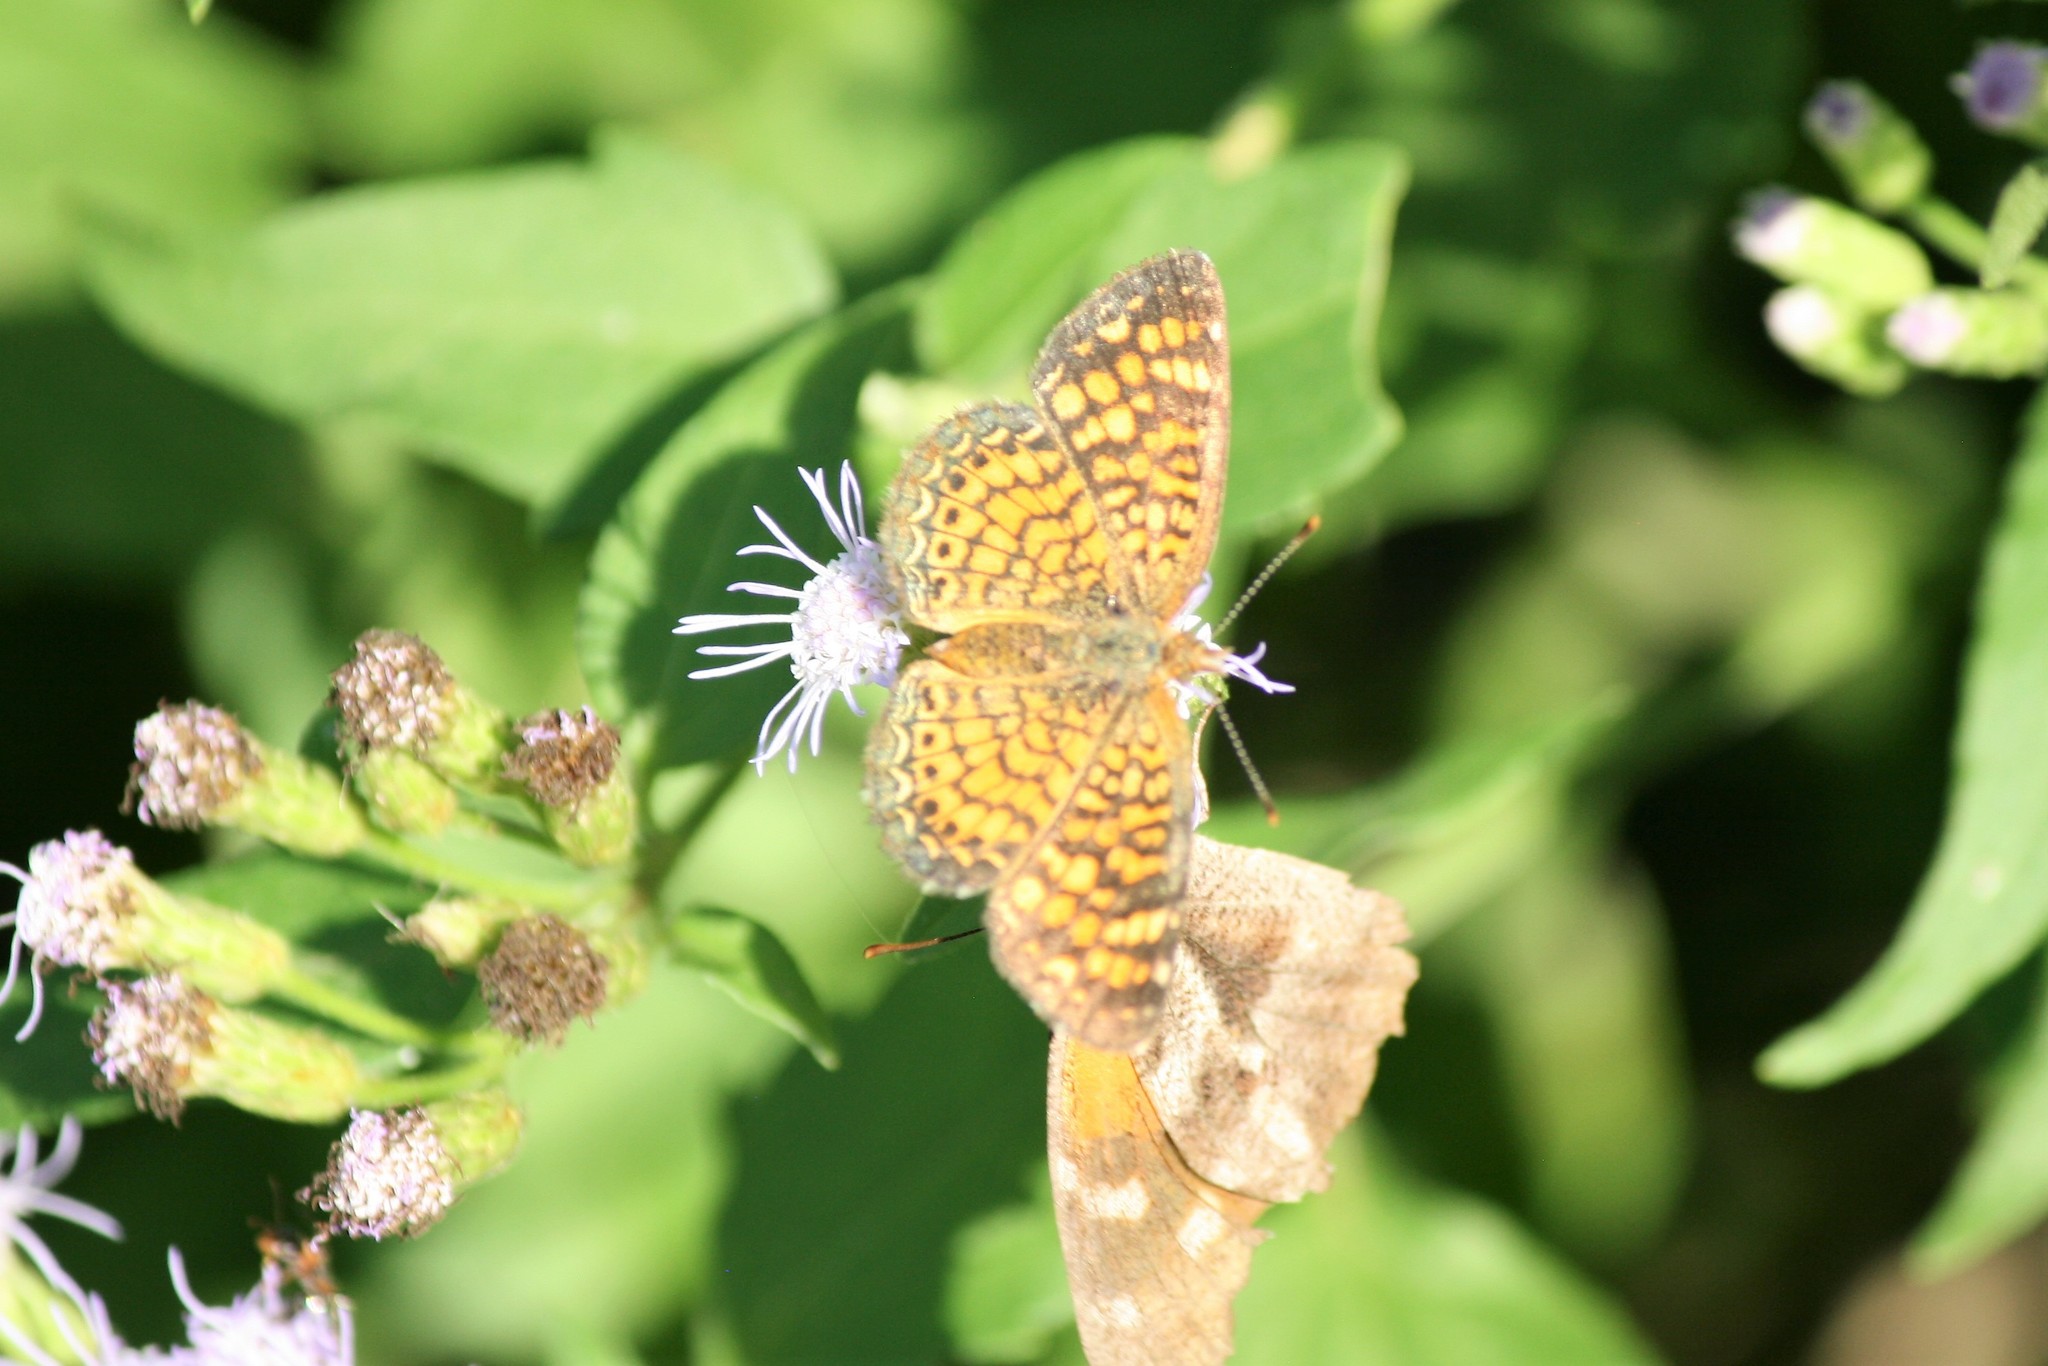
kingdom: Animalia
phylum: Arthropoda
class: Insecta
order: Lepidoptera
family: Nymphalidae
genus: Phyciodes
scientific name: Phyciodes vesta
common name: Vesta crescent
